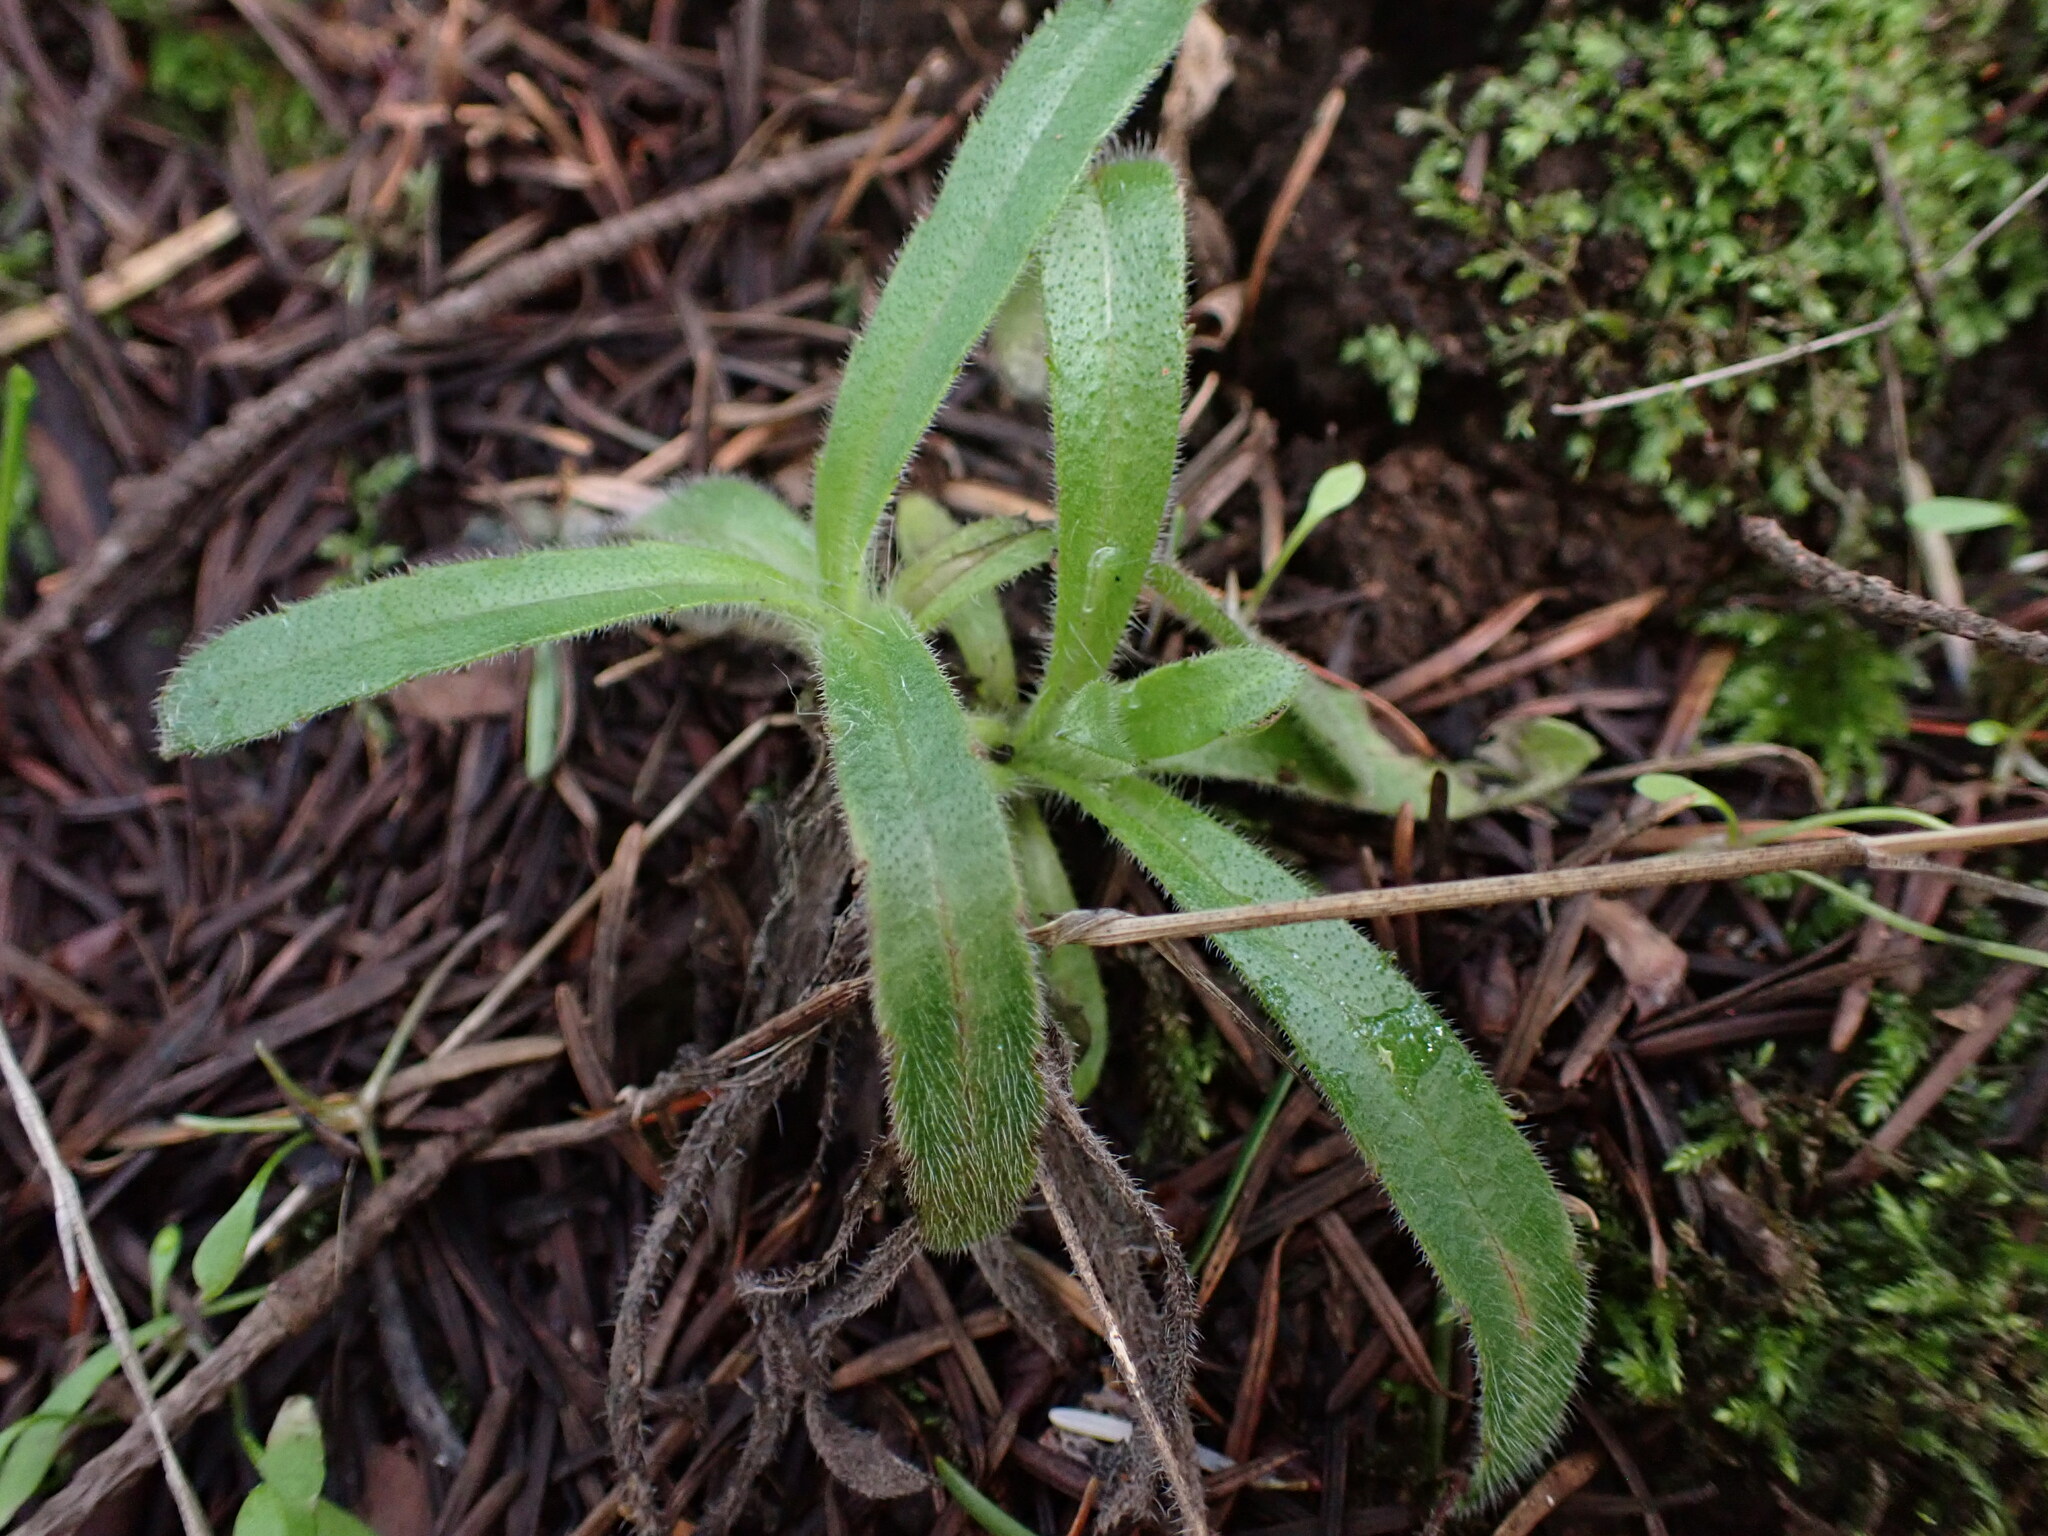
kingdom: Plantae
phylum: Tracheophyta
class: Magnoliopsida
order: Asterales
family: Asteraceae
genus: Anisocarpus
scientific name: Anisocarpus madioides
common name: Woodland madia
